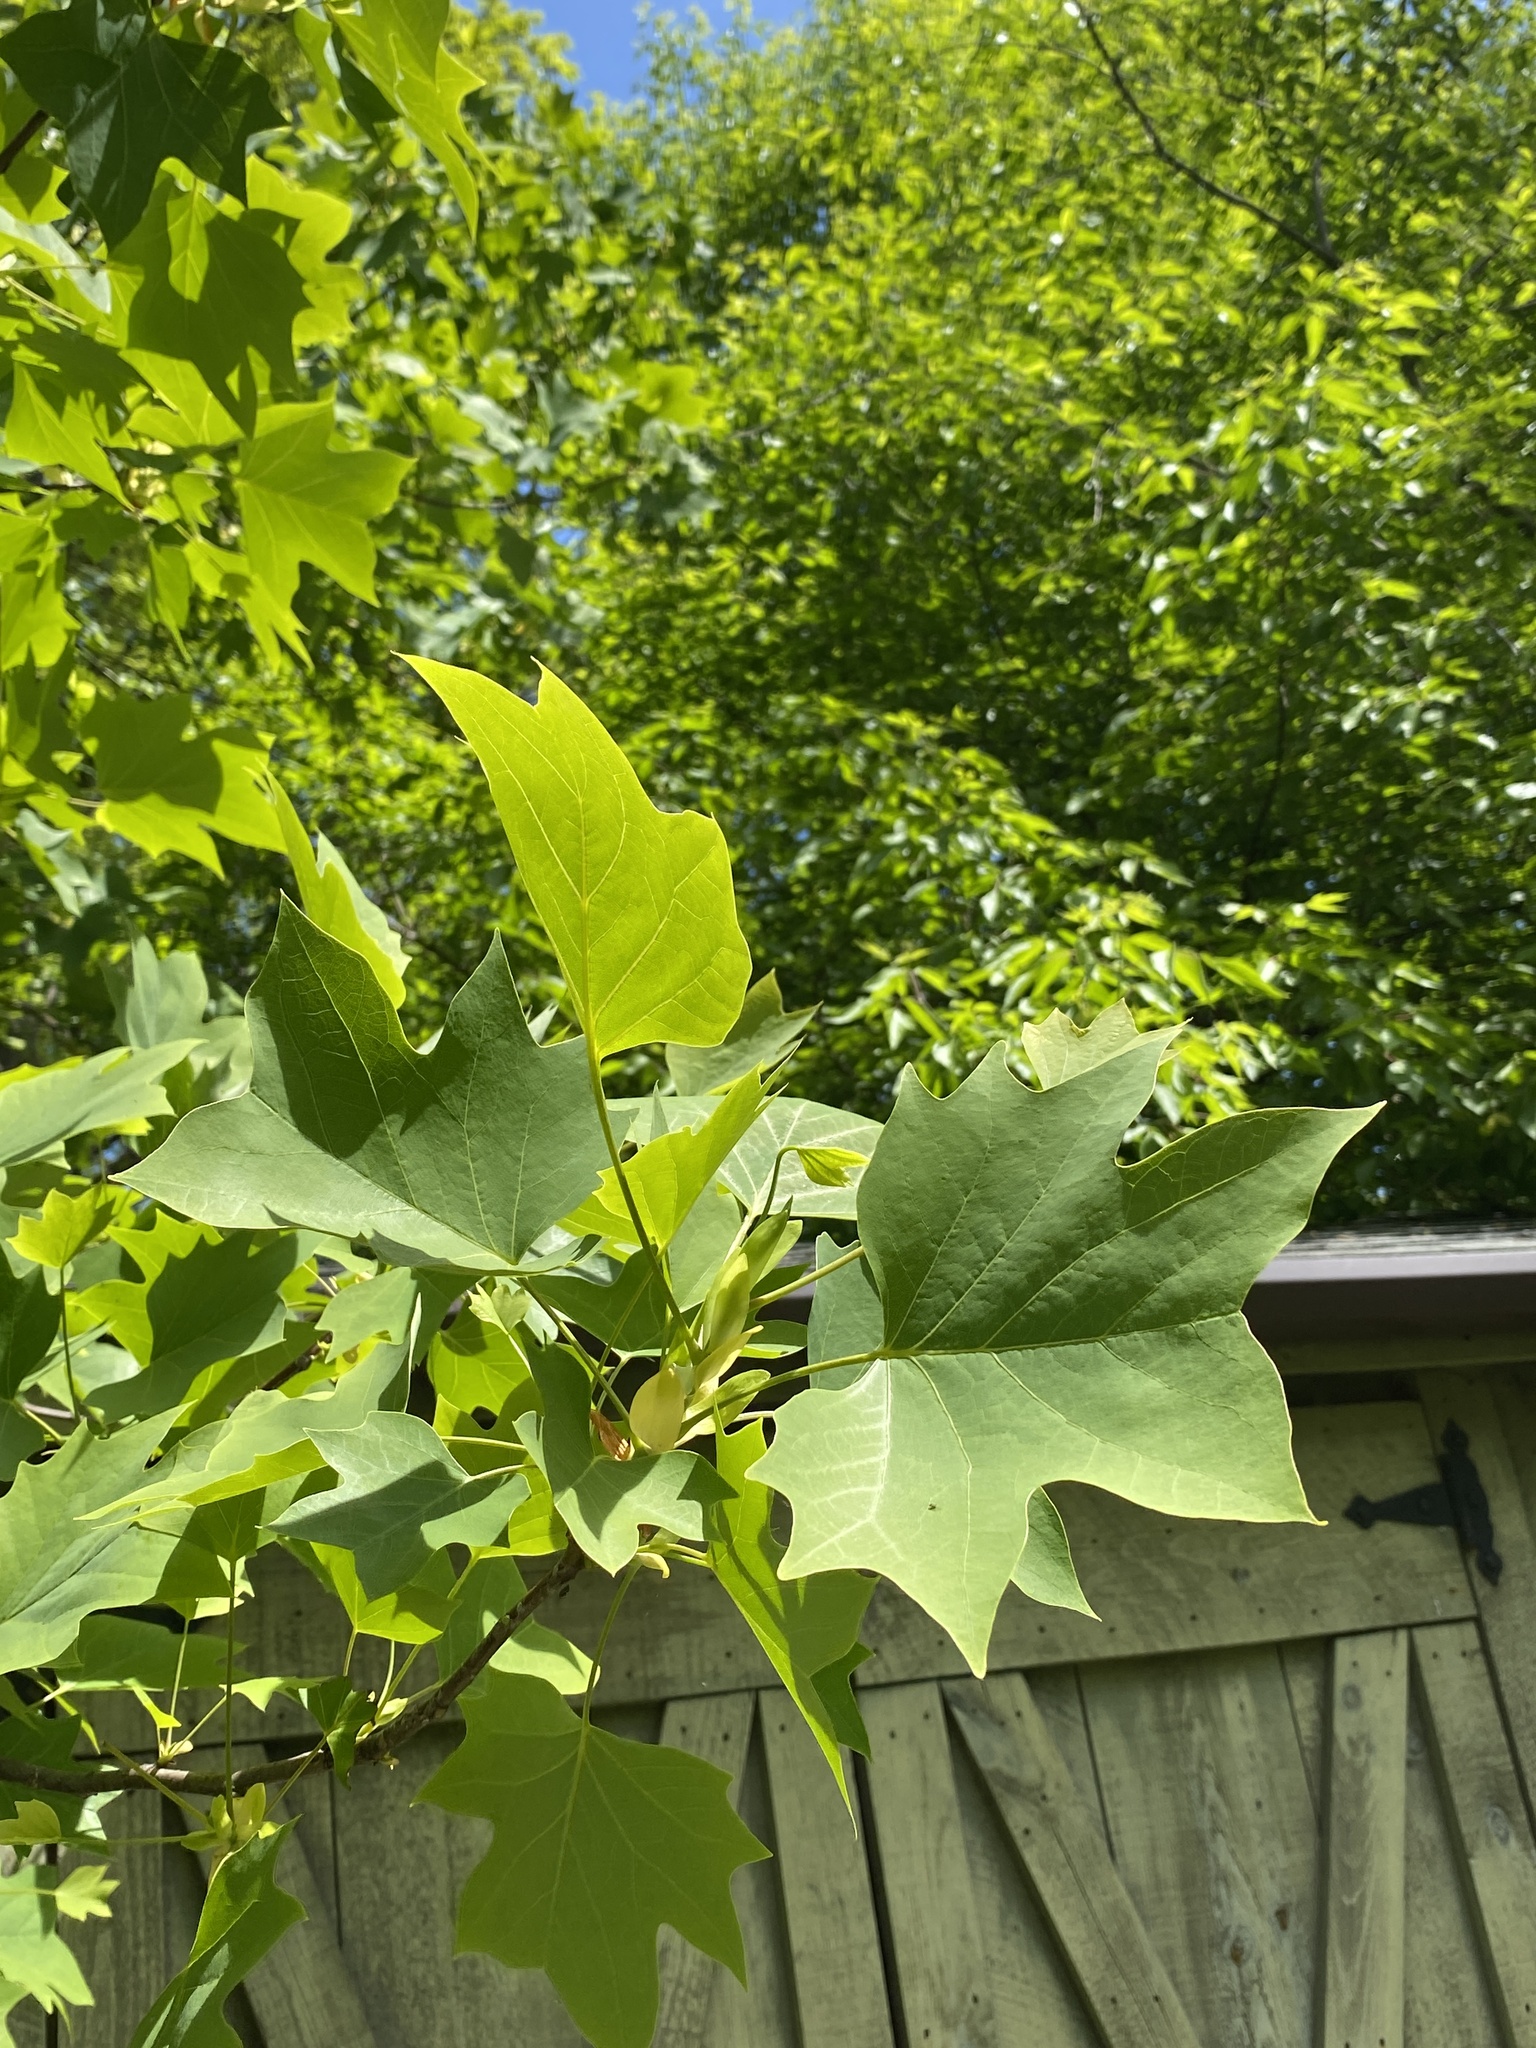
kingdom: Plantae
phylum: Tracheophyta
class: Magnoliopsida
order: Magnoliales
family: Magnoliaceae
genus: Liriodendron
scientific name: Liriodendron tulipifera
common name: Tulip tree
